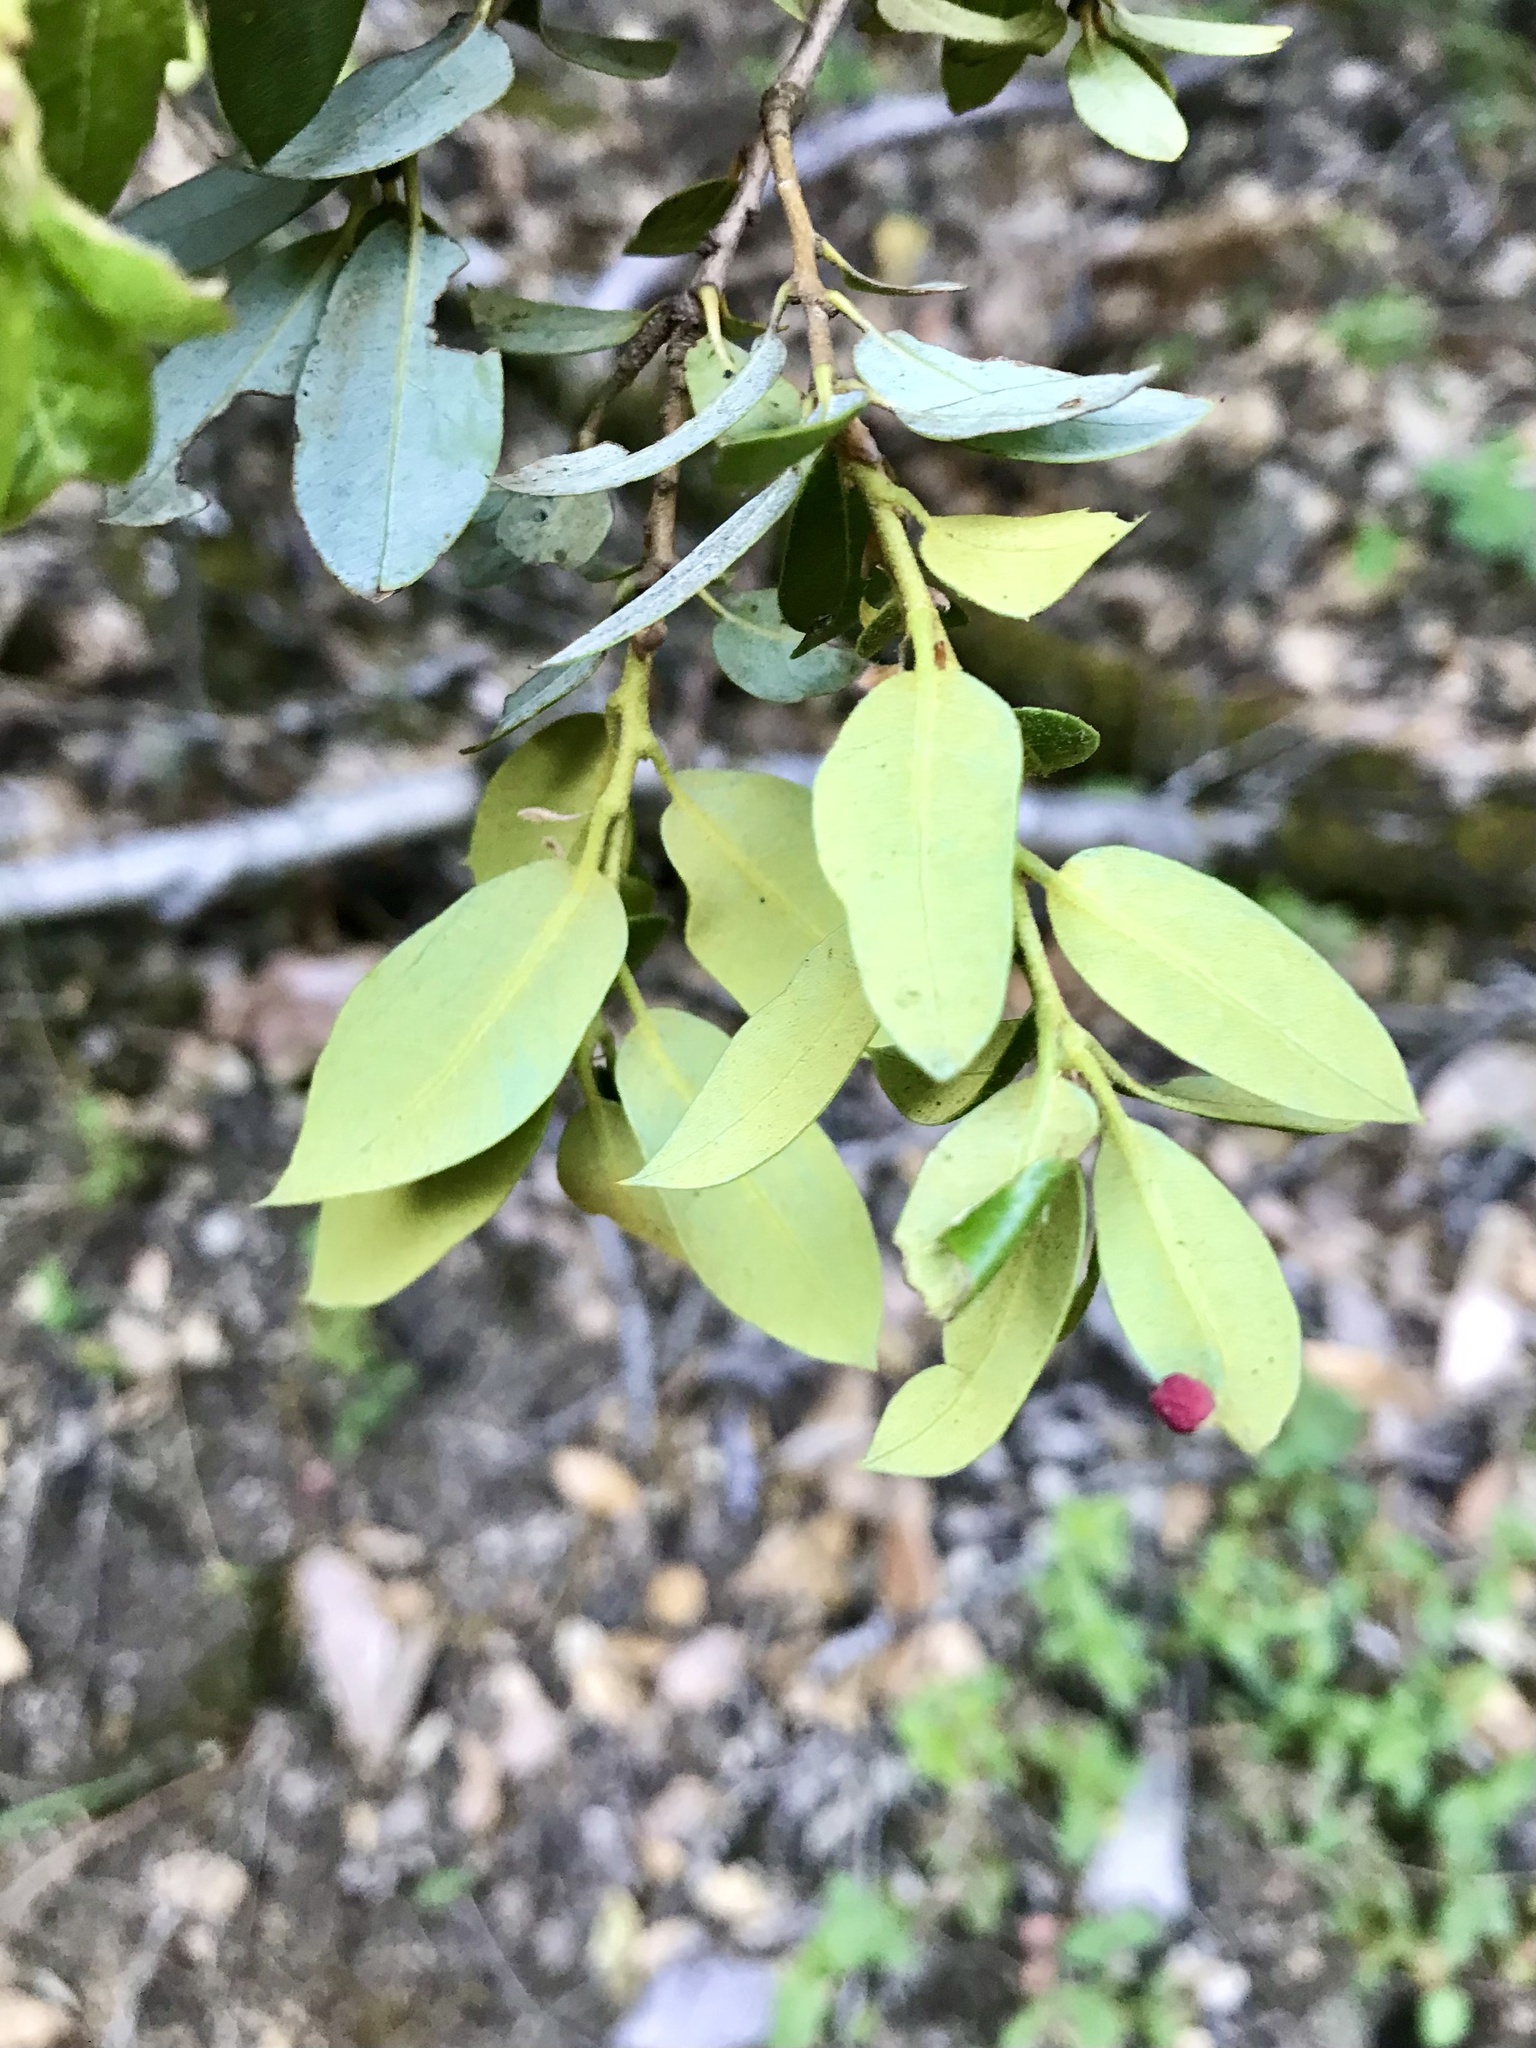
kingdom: Plantae
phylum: Tracheophyta
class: Magnoliopsida
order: Fagales
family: Fagaceae
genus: Quercus
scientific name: Quercus chrysolepis
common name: Canyon live oak
